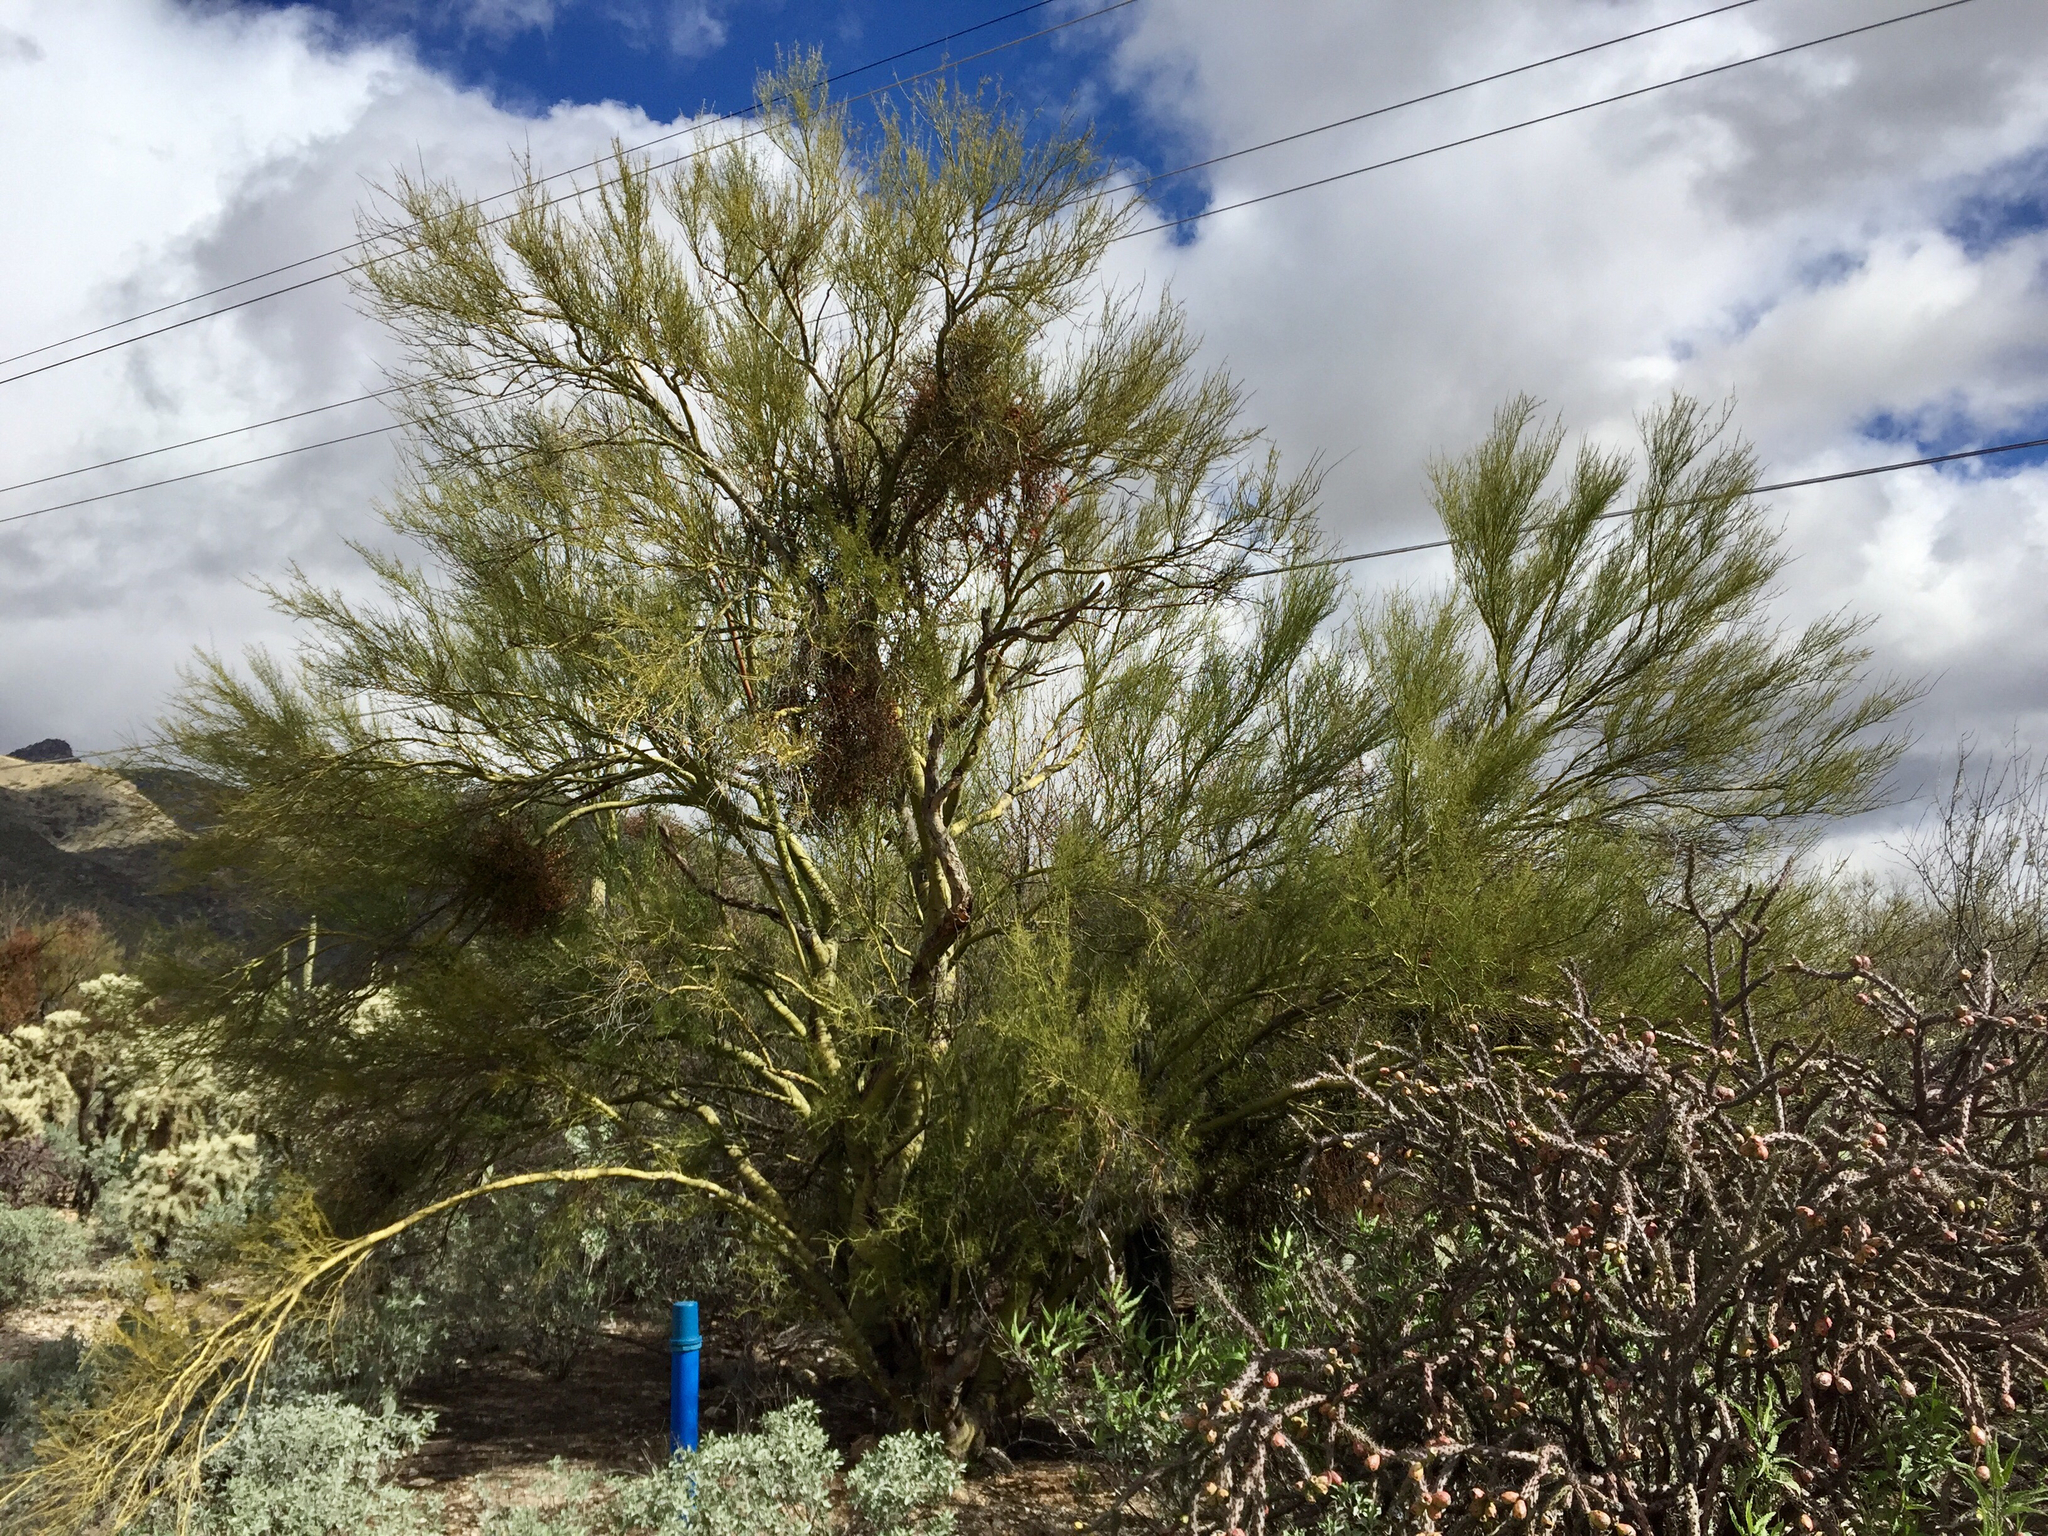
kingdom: Plantae
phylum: Tracheophyta
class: Magnoliopsida
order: Fabales
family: Fabaceae
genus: Parkinsonia
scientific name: Parkinsonia microphylla
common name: Yellow paloverde
